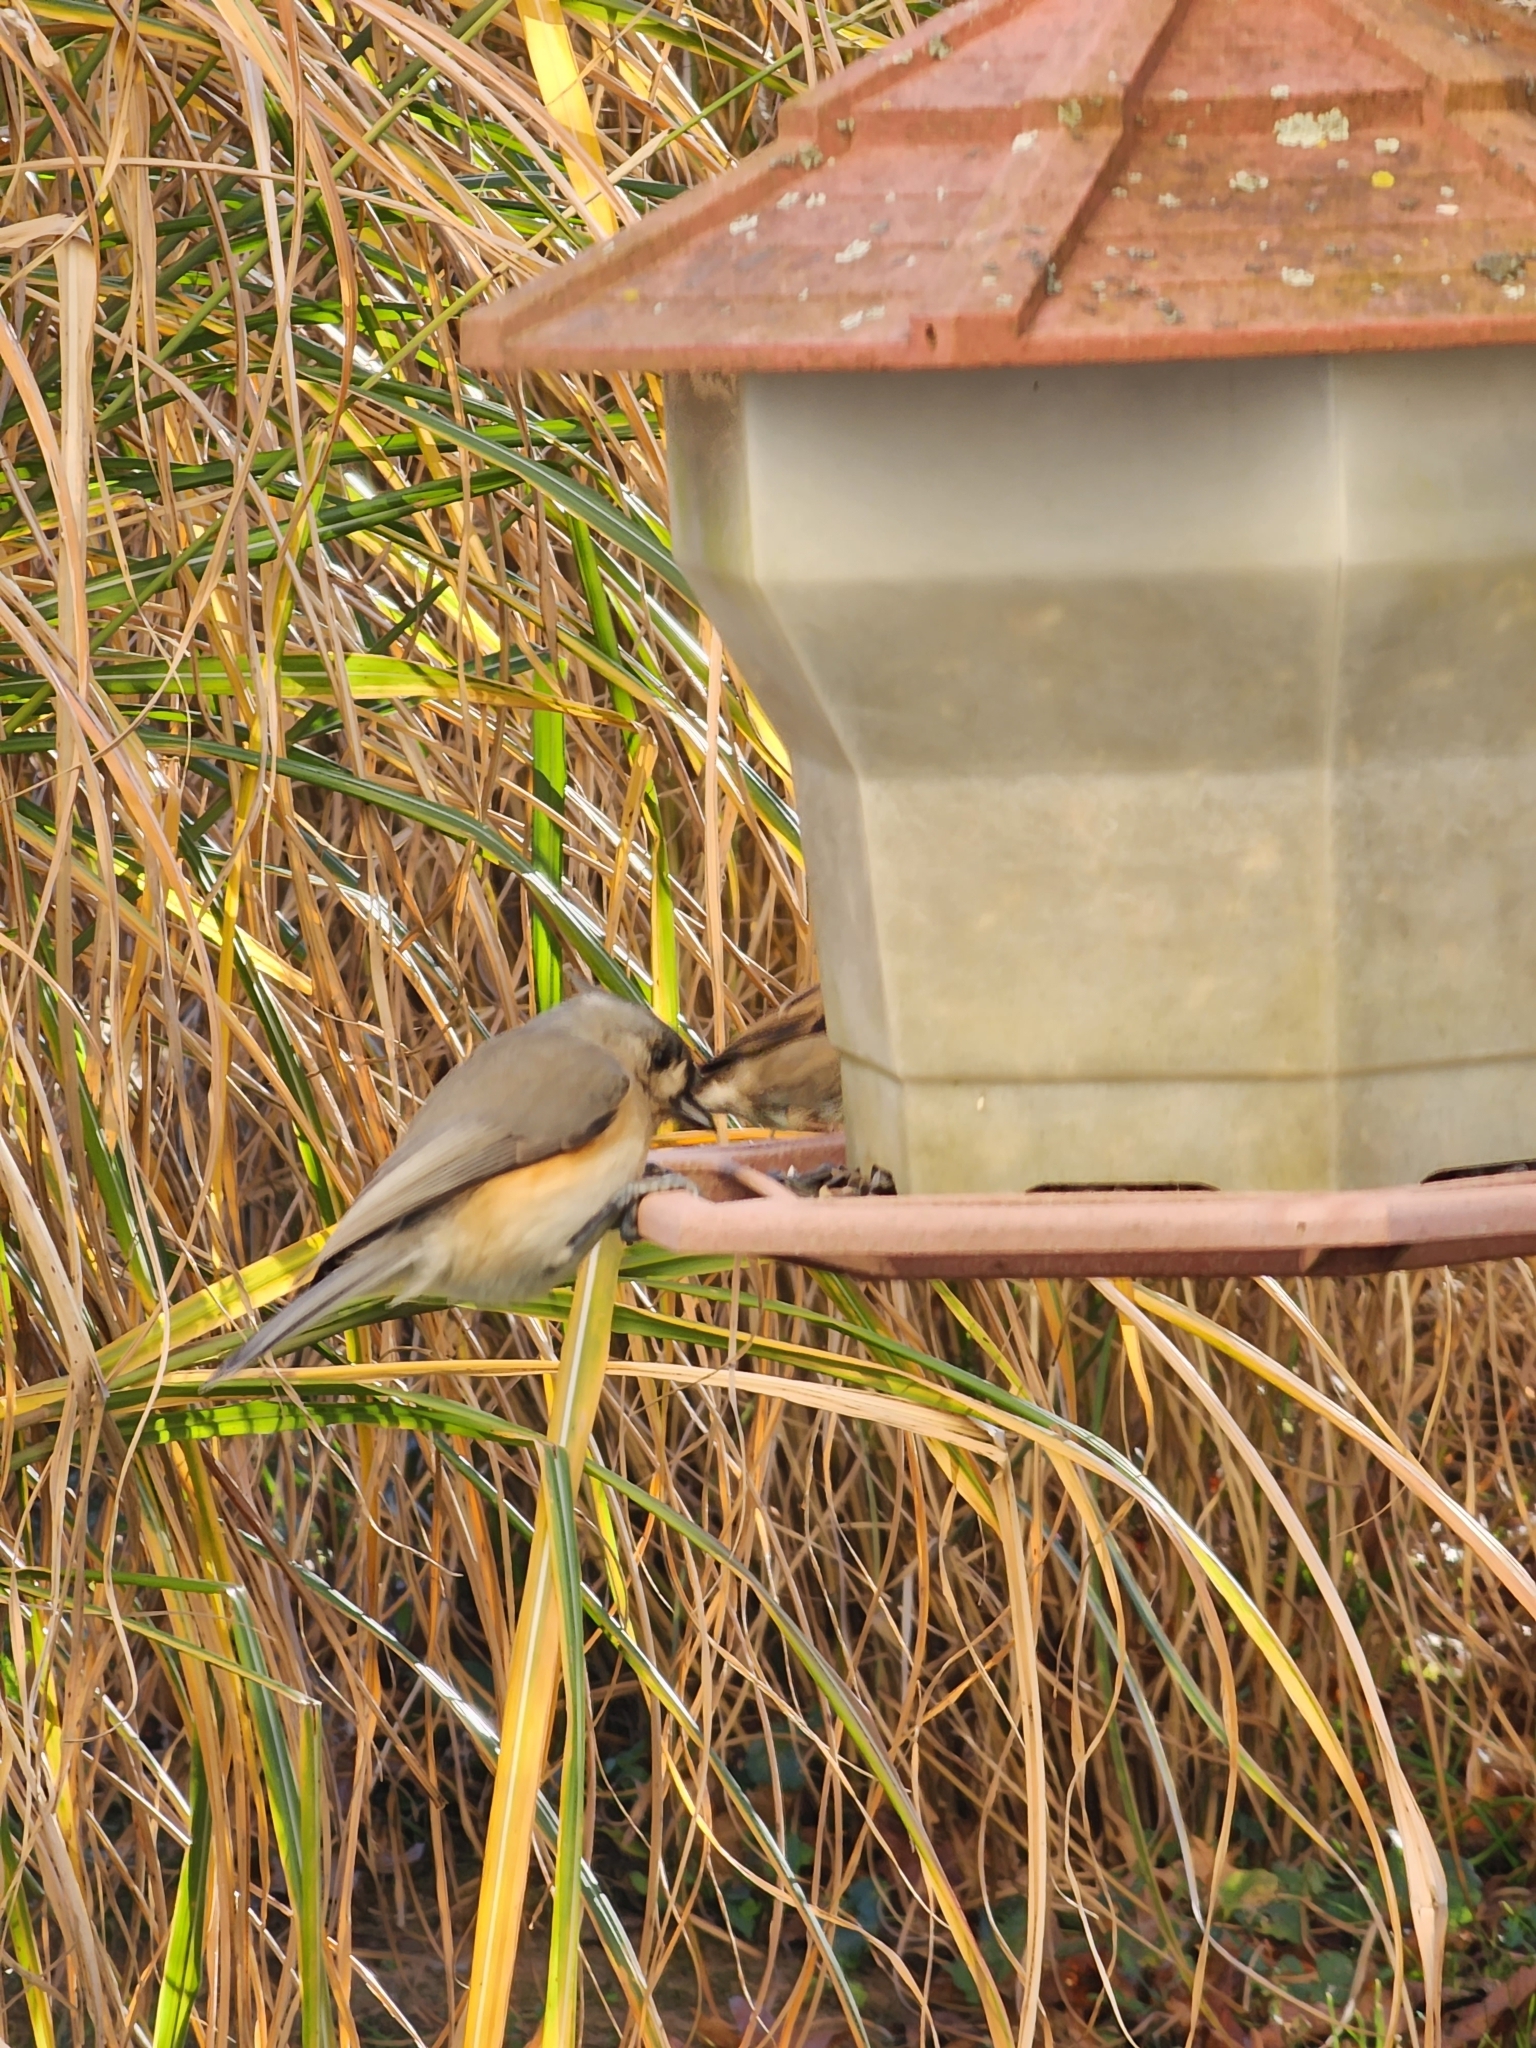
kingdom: Animalia
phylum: Chordata
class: Aves
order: Passeriformes
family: Paridae
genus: Baeolophus
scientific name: Baeolophus bicolor
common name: Tufted titmouse
